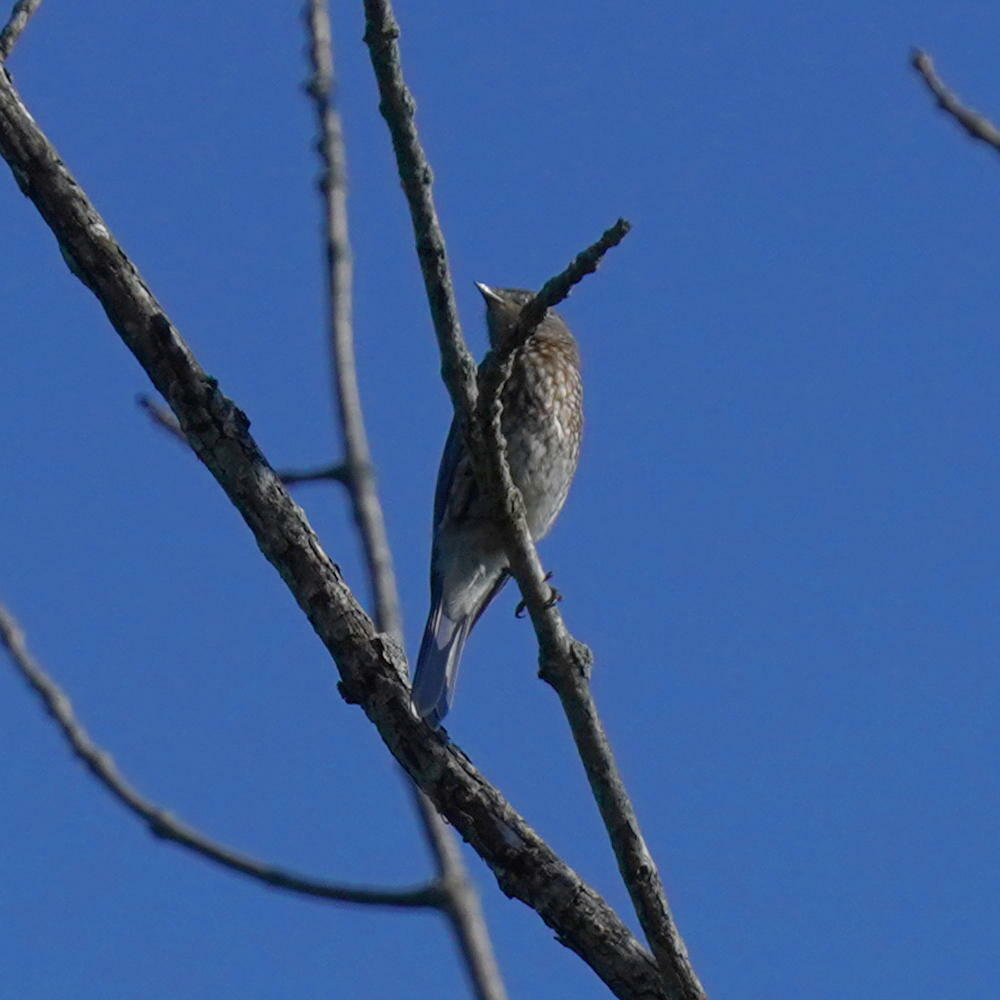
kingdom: Animalia
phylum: Chordata
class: Aves
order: Passeriformes
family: Turdidae
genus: Sialia
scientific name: Sialia sialis
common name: Eastern bluebird
